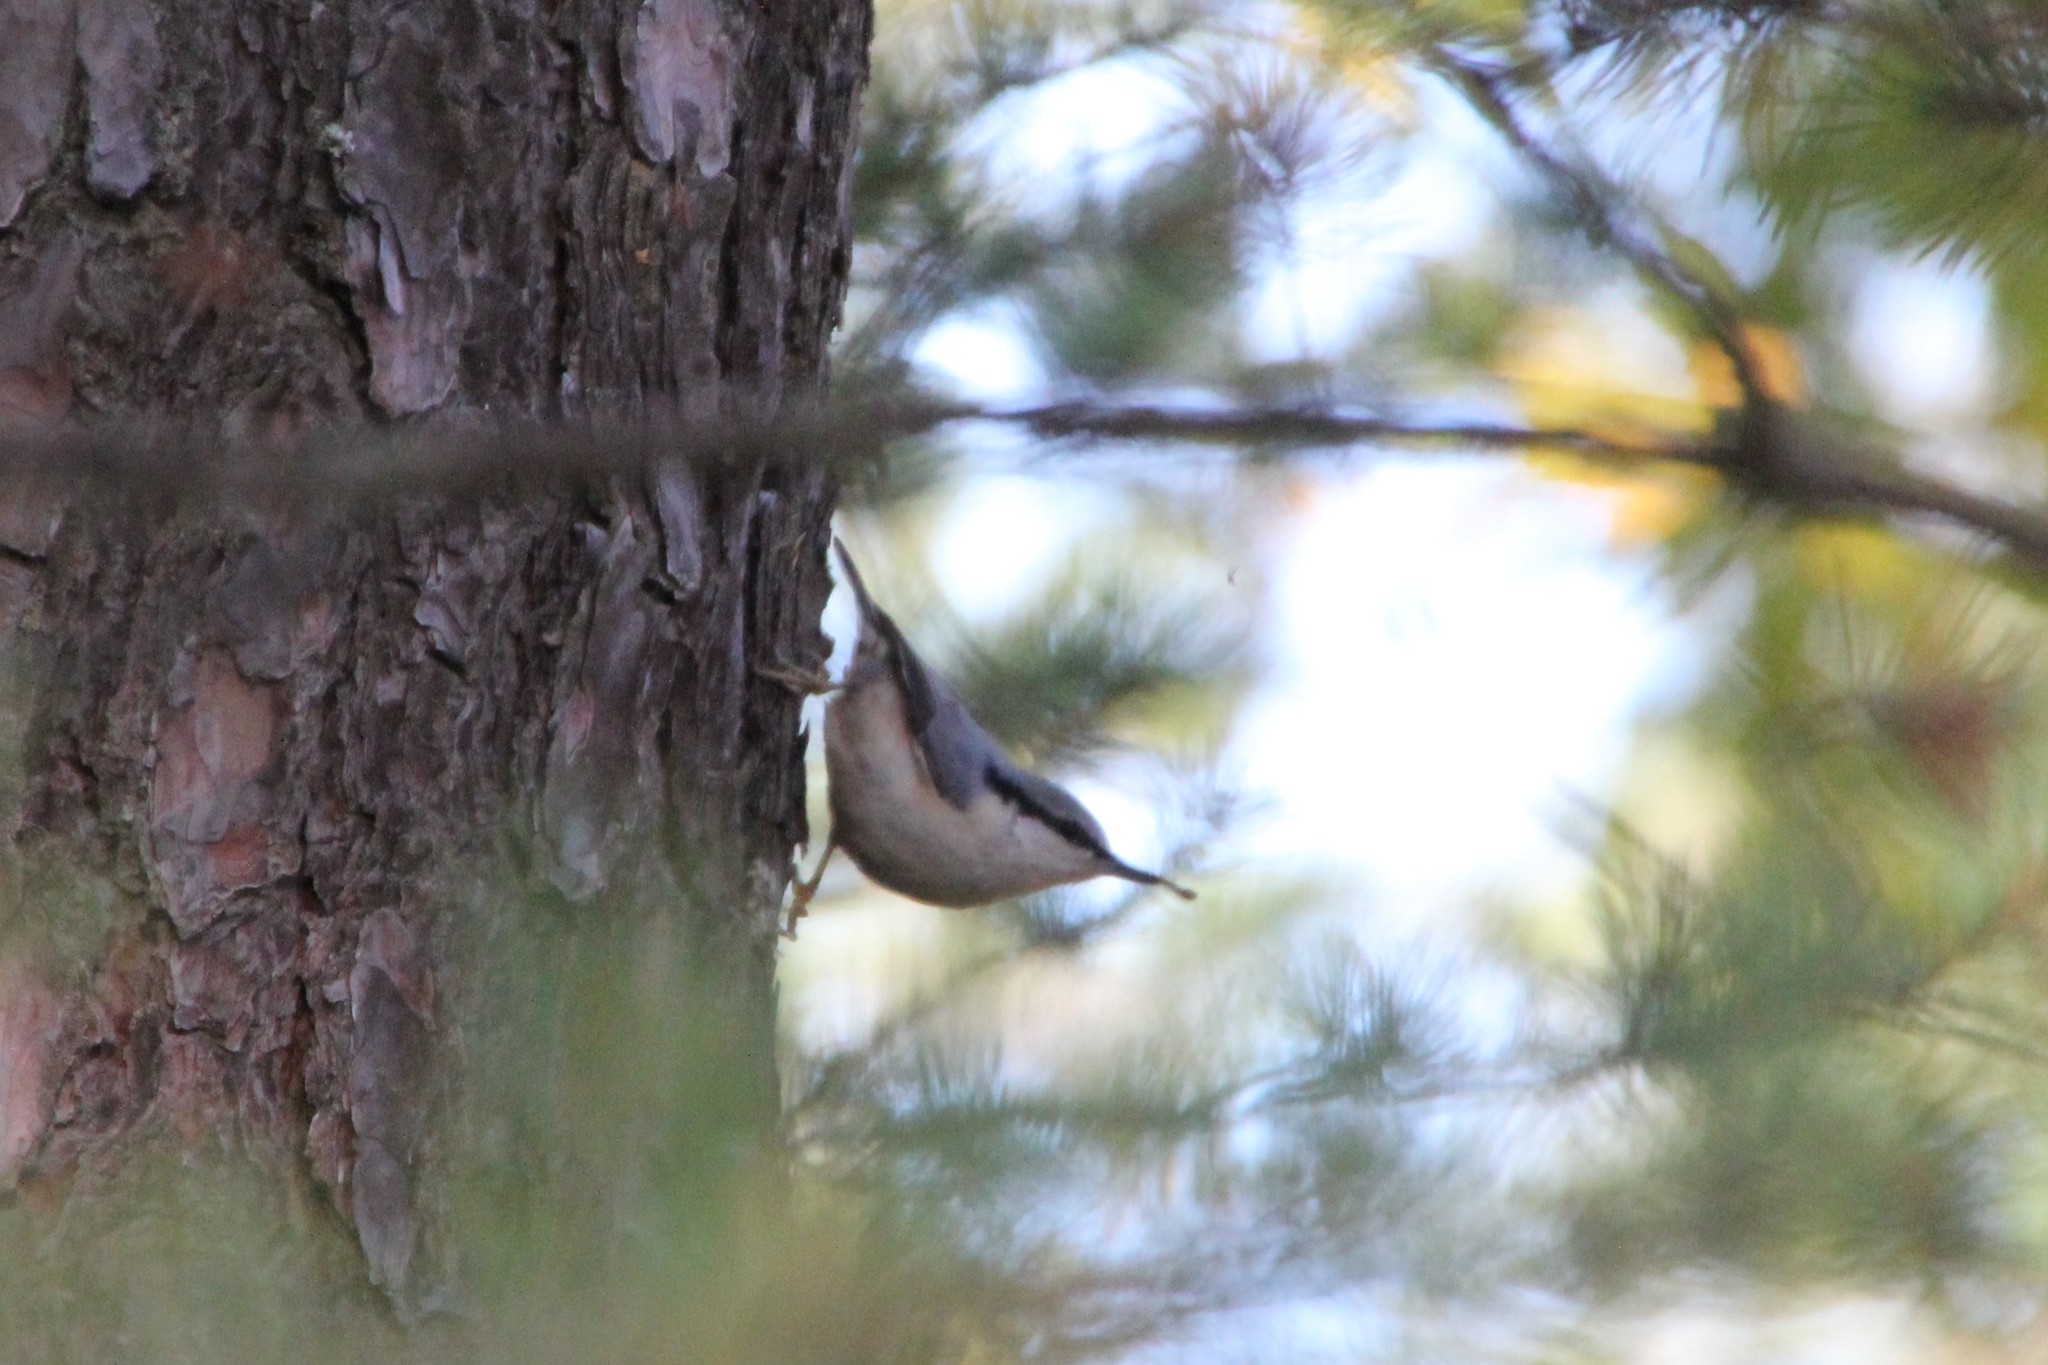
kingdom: Animalia
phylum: Chordata
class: Aves
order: Passeriformes
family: Sittidae
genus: Sitta
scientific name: Sitta europaea
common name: Eurasian nuthatch
